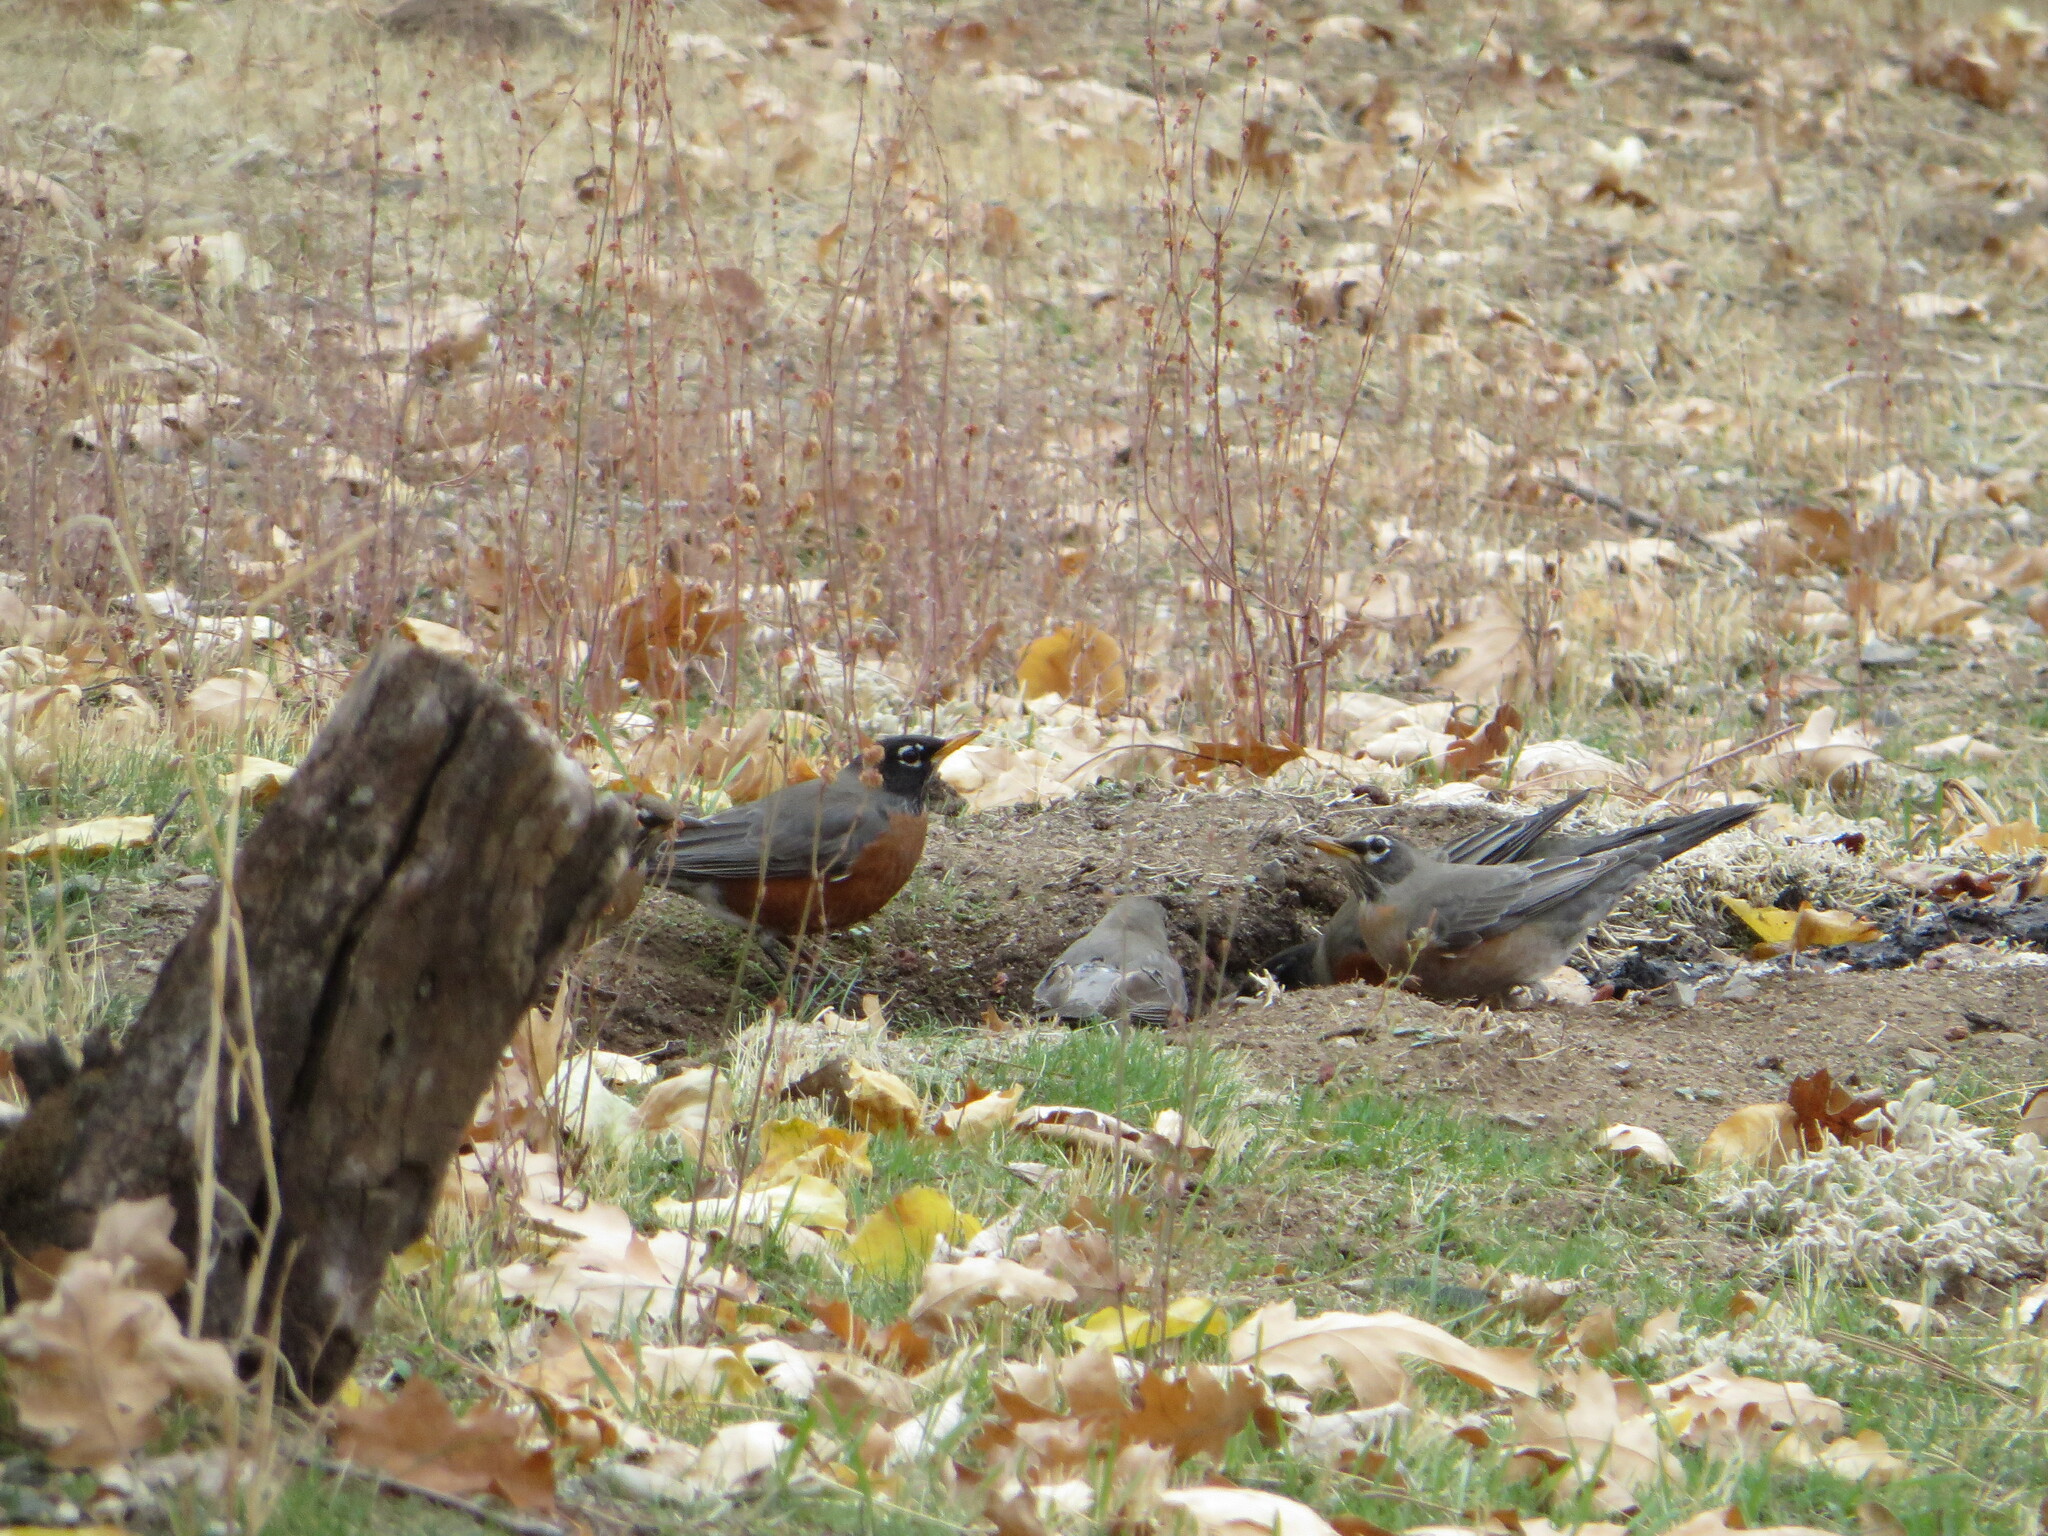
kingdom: Animalia
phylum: Chordata
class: Aves
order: Passeriformes
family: Turdidae
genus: Turdus
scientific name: Turdus migratorius
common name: American robin
